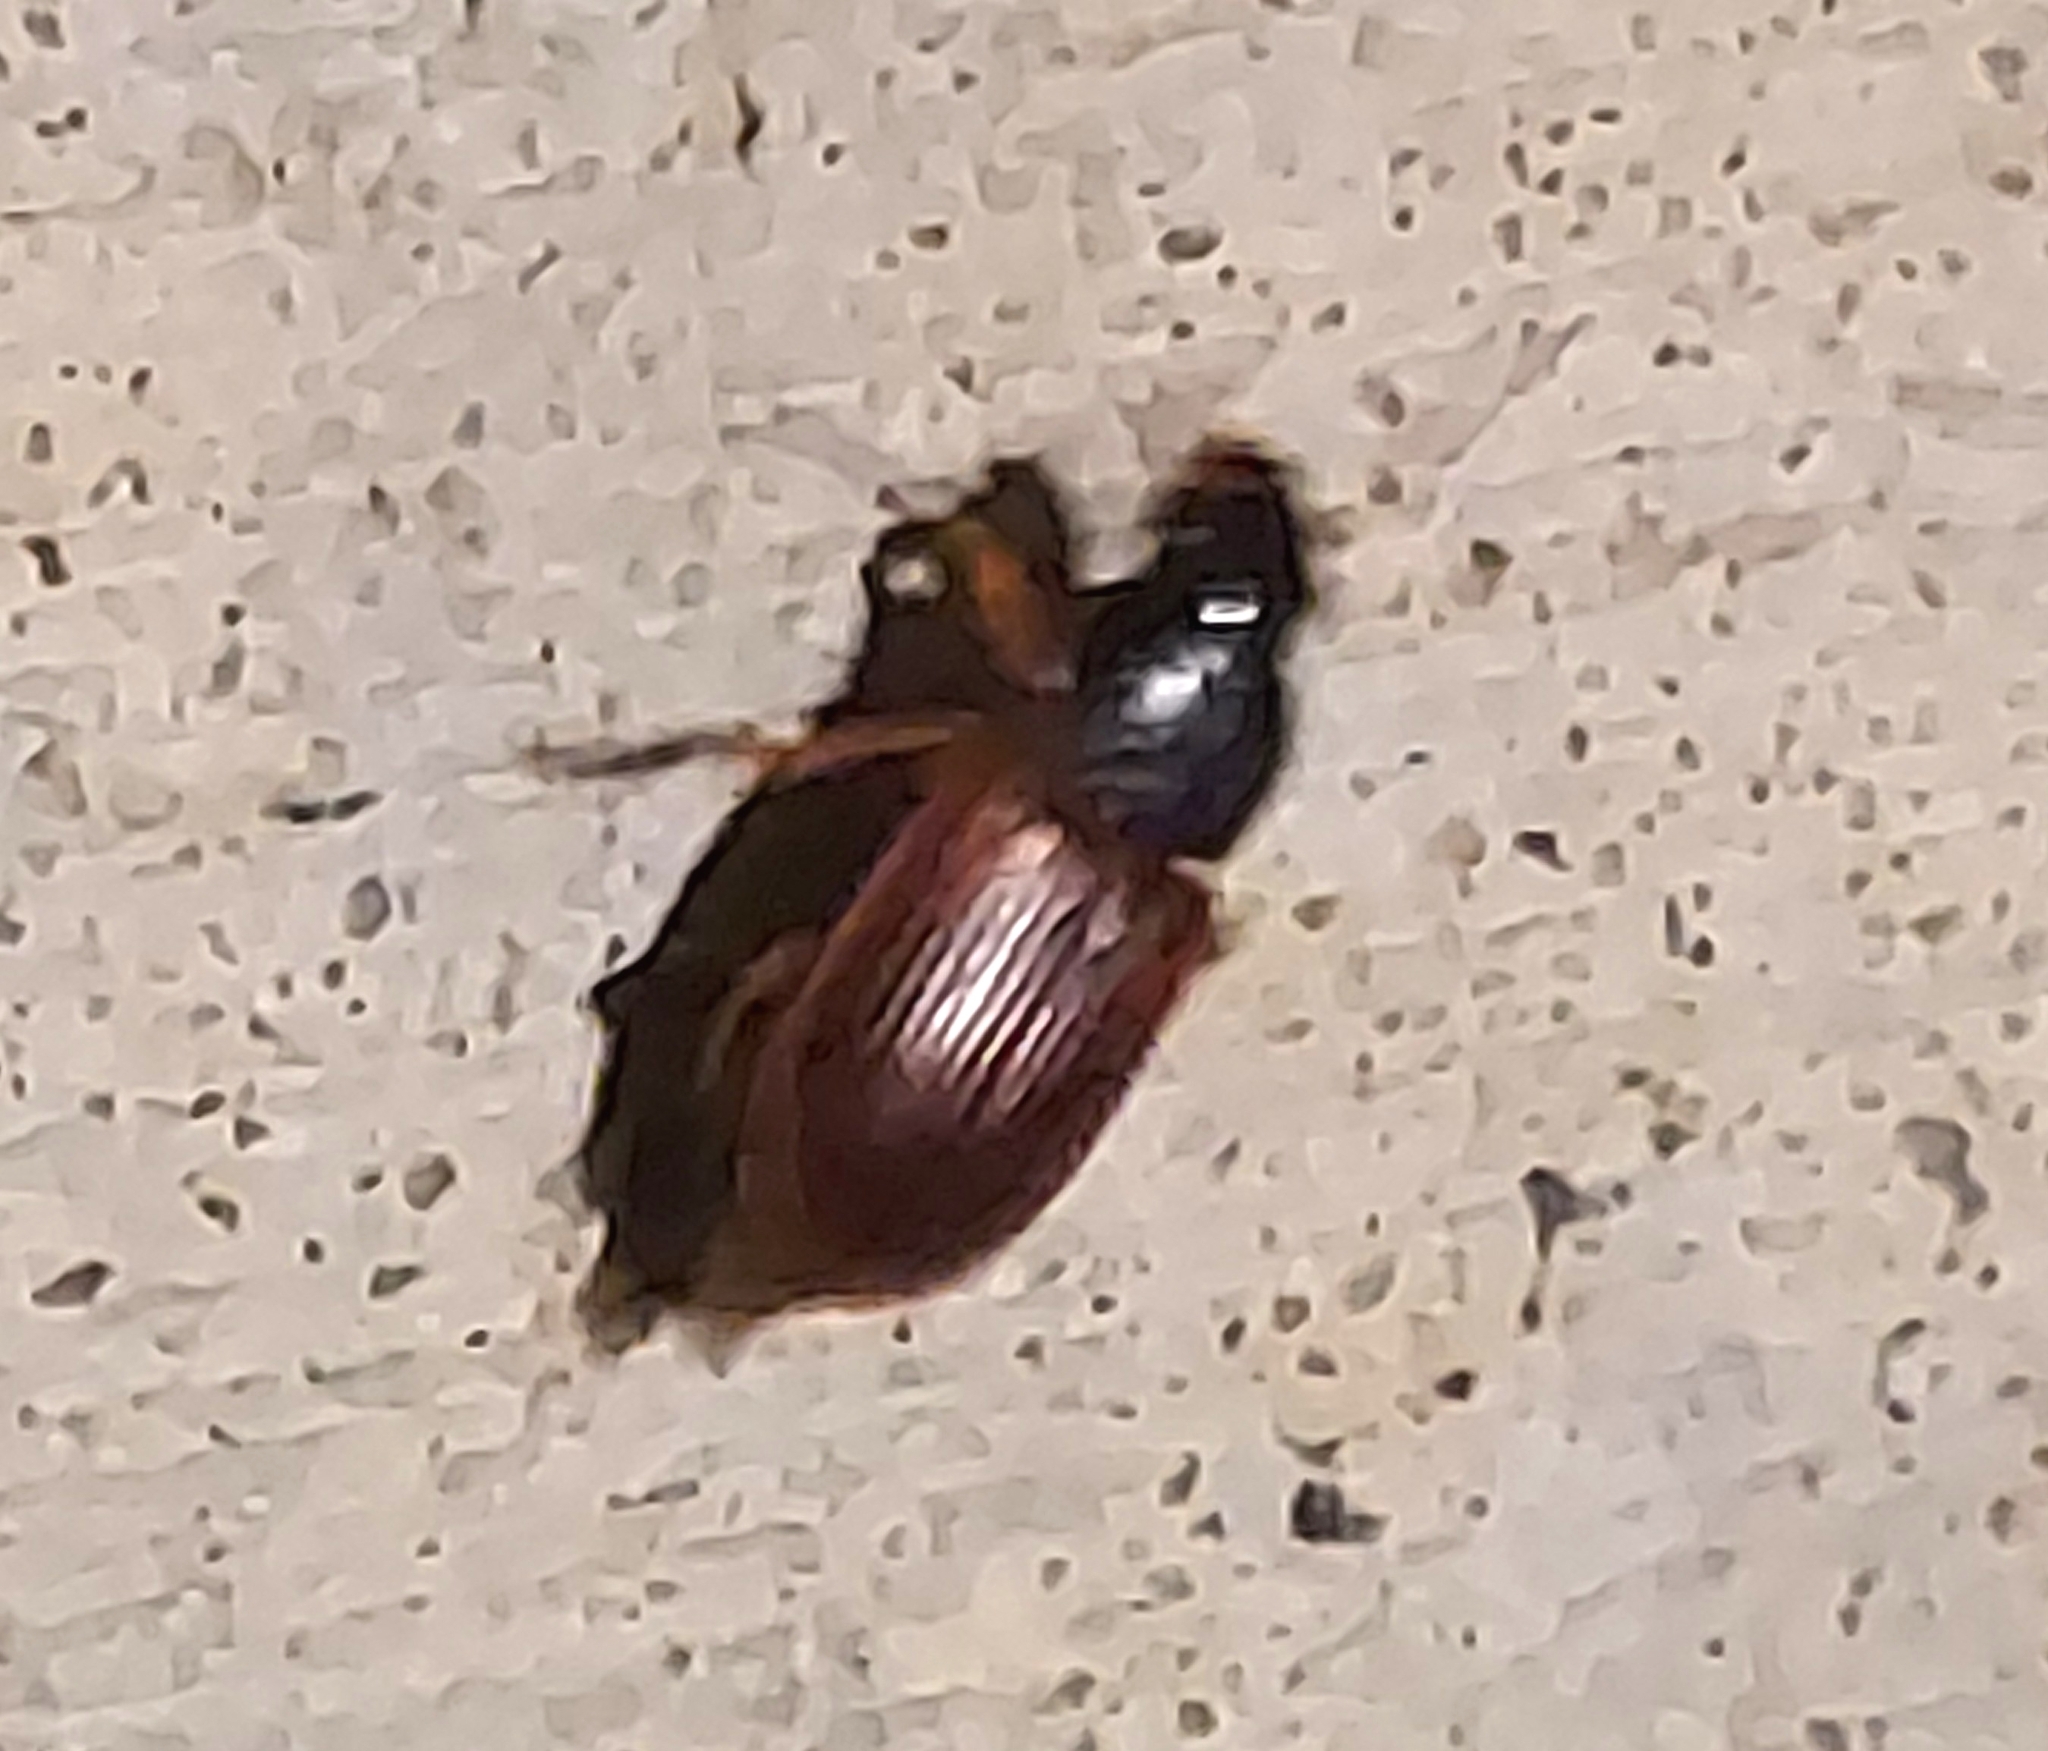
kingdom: Animalia
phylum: Arthropoda
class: Insecta
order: Coleoptera
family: Carabidae
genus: Anisodactylus
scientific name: Anisodactylus sanctaecrucis
